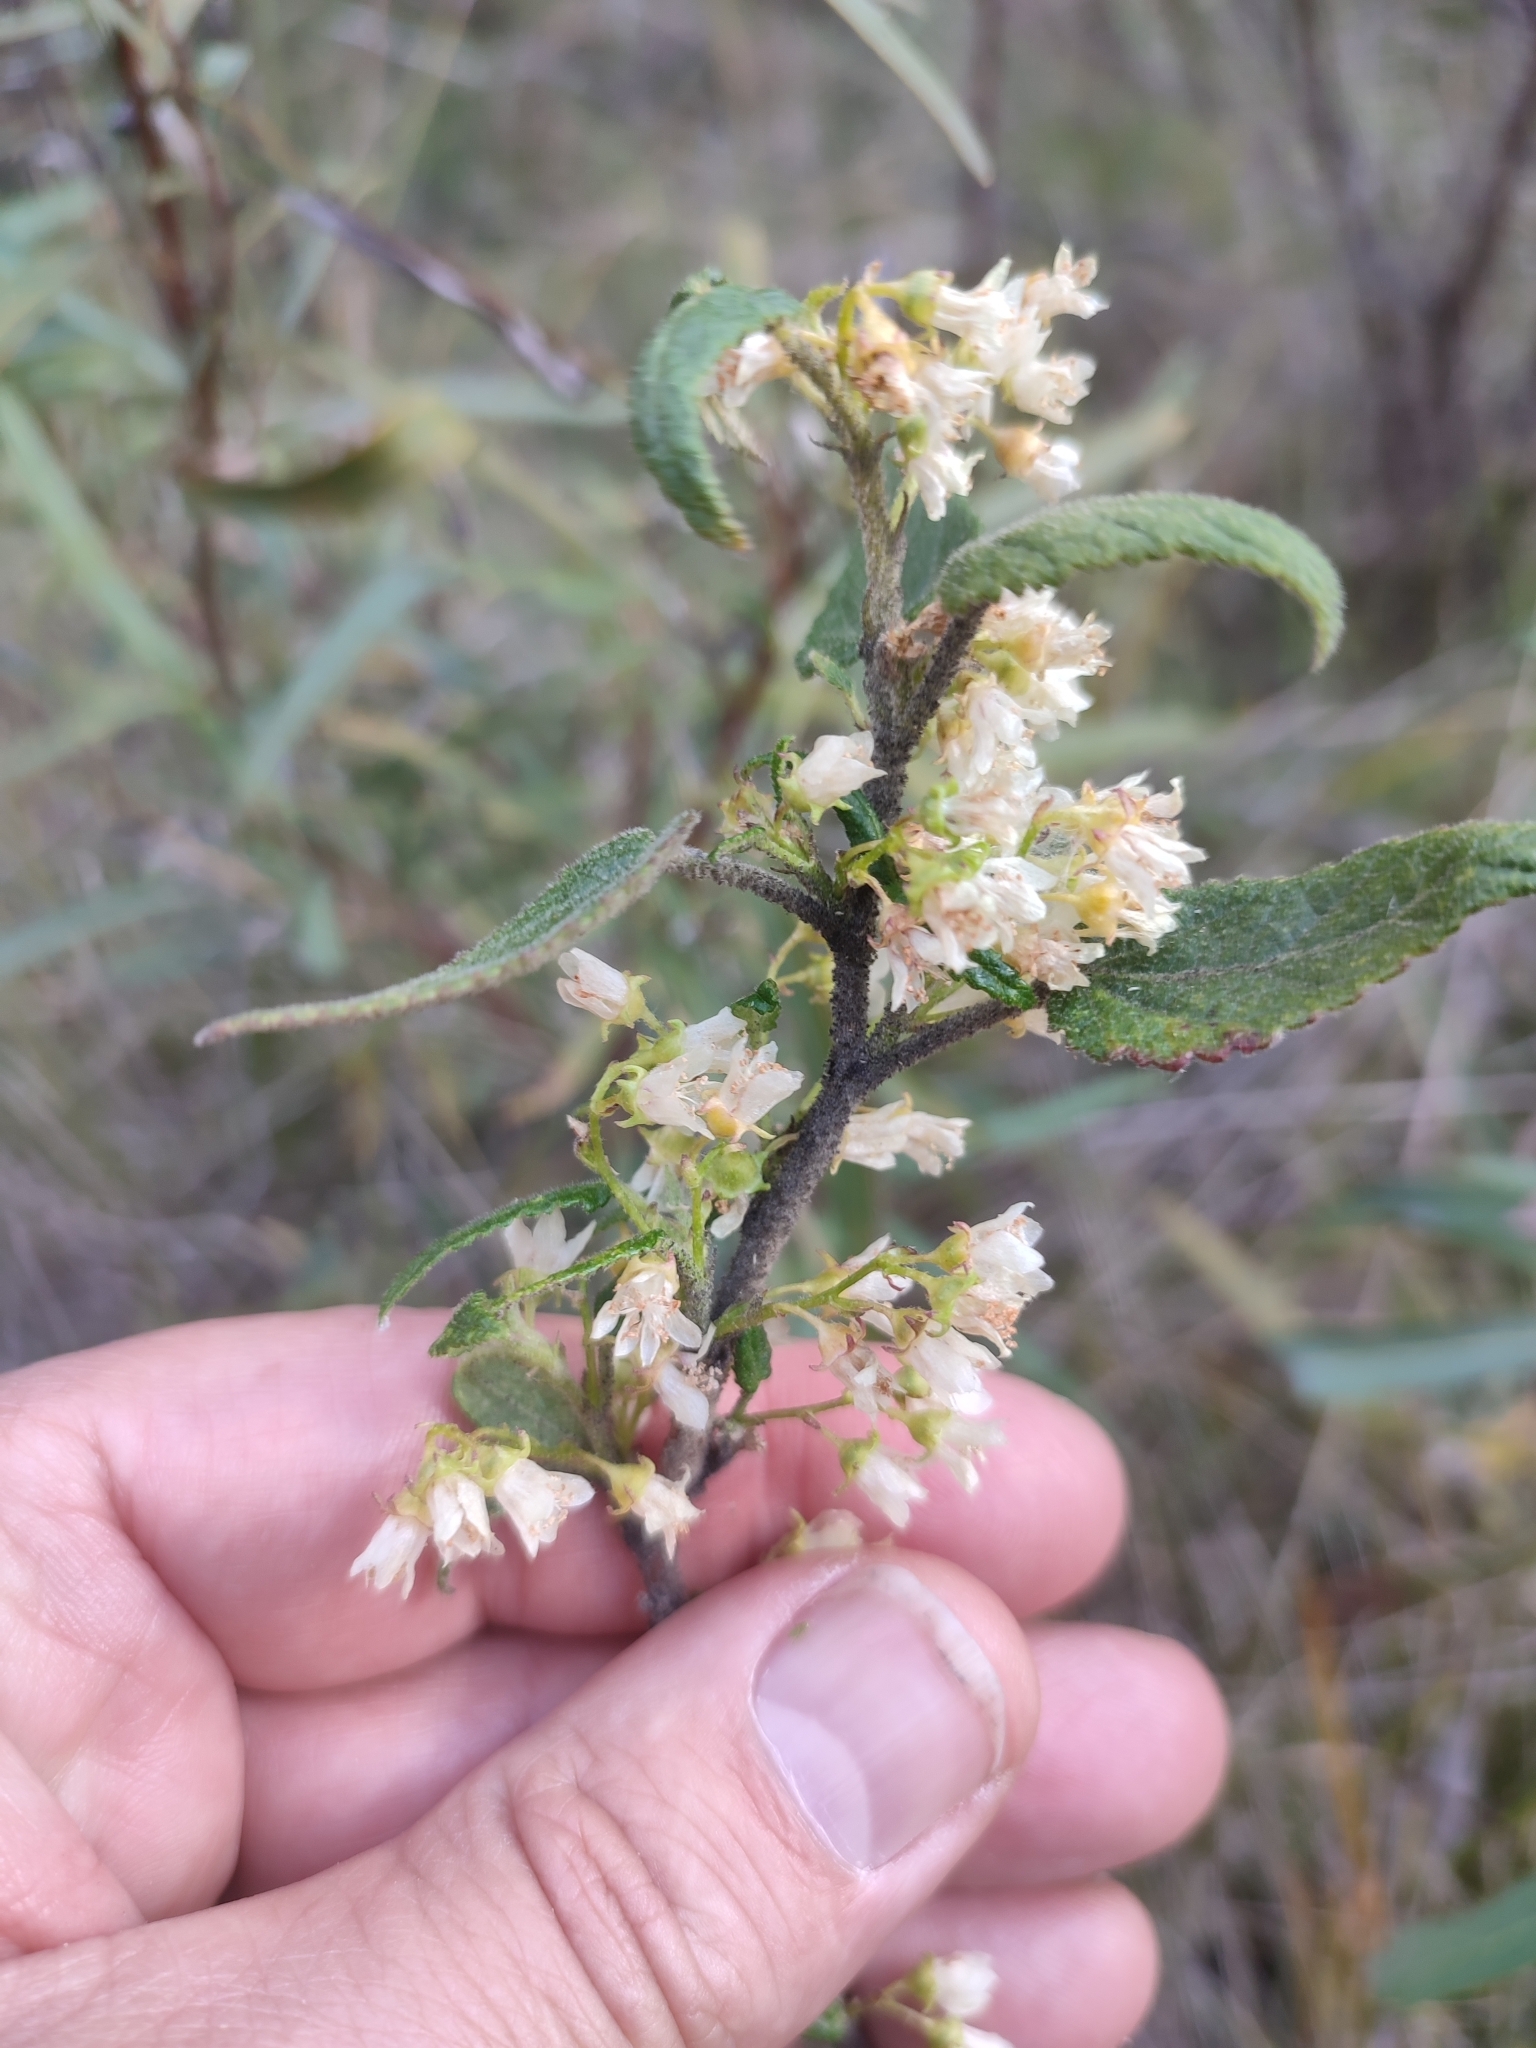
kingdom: Plantae
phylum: Tracheophyta
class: Magnoliopsida
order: Malvales
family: Malvaceae
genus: Gynatrix
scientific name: Gynatrix pulchella
